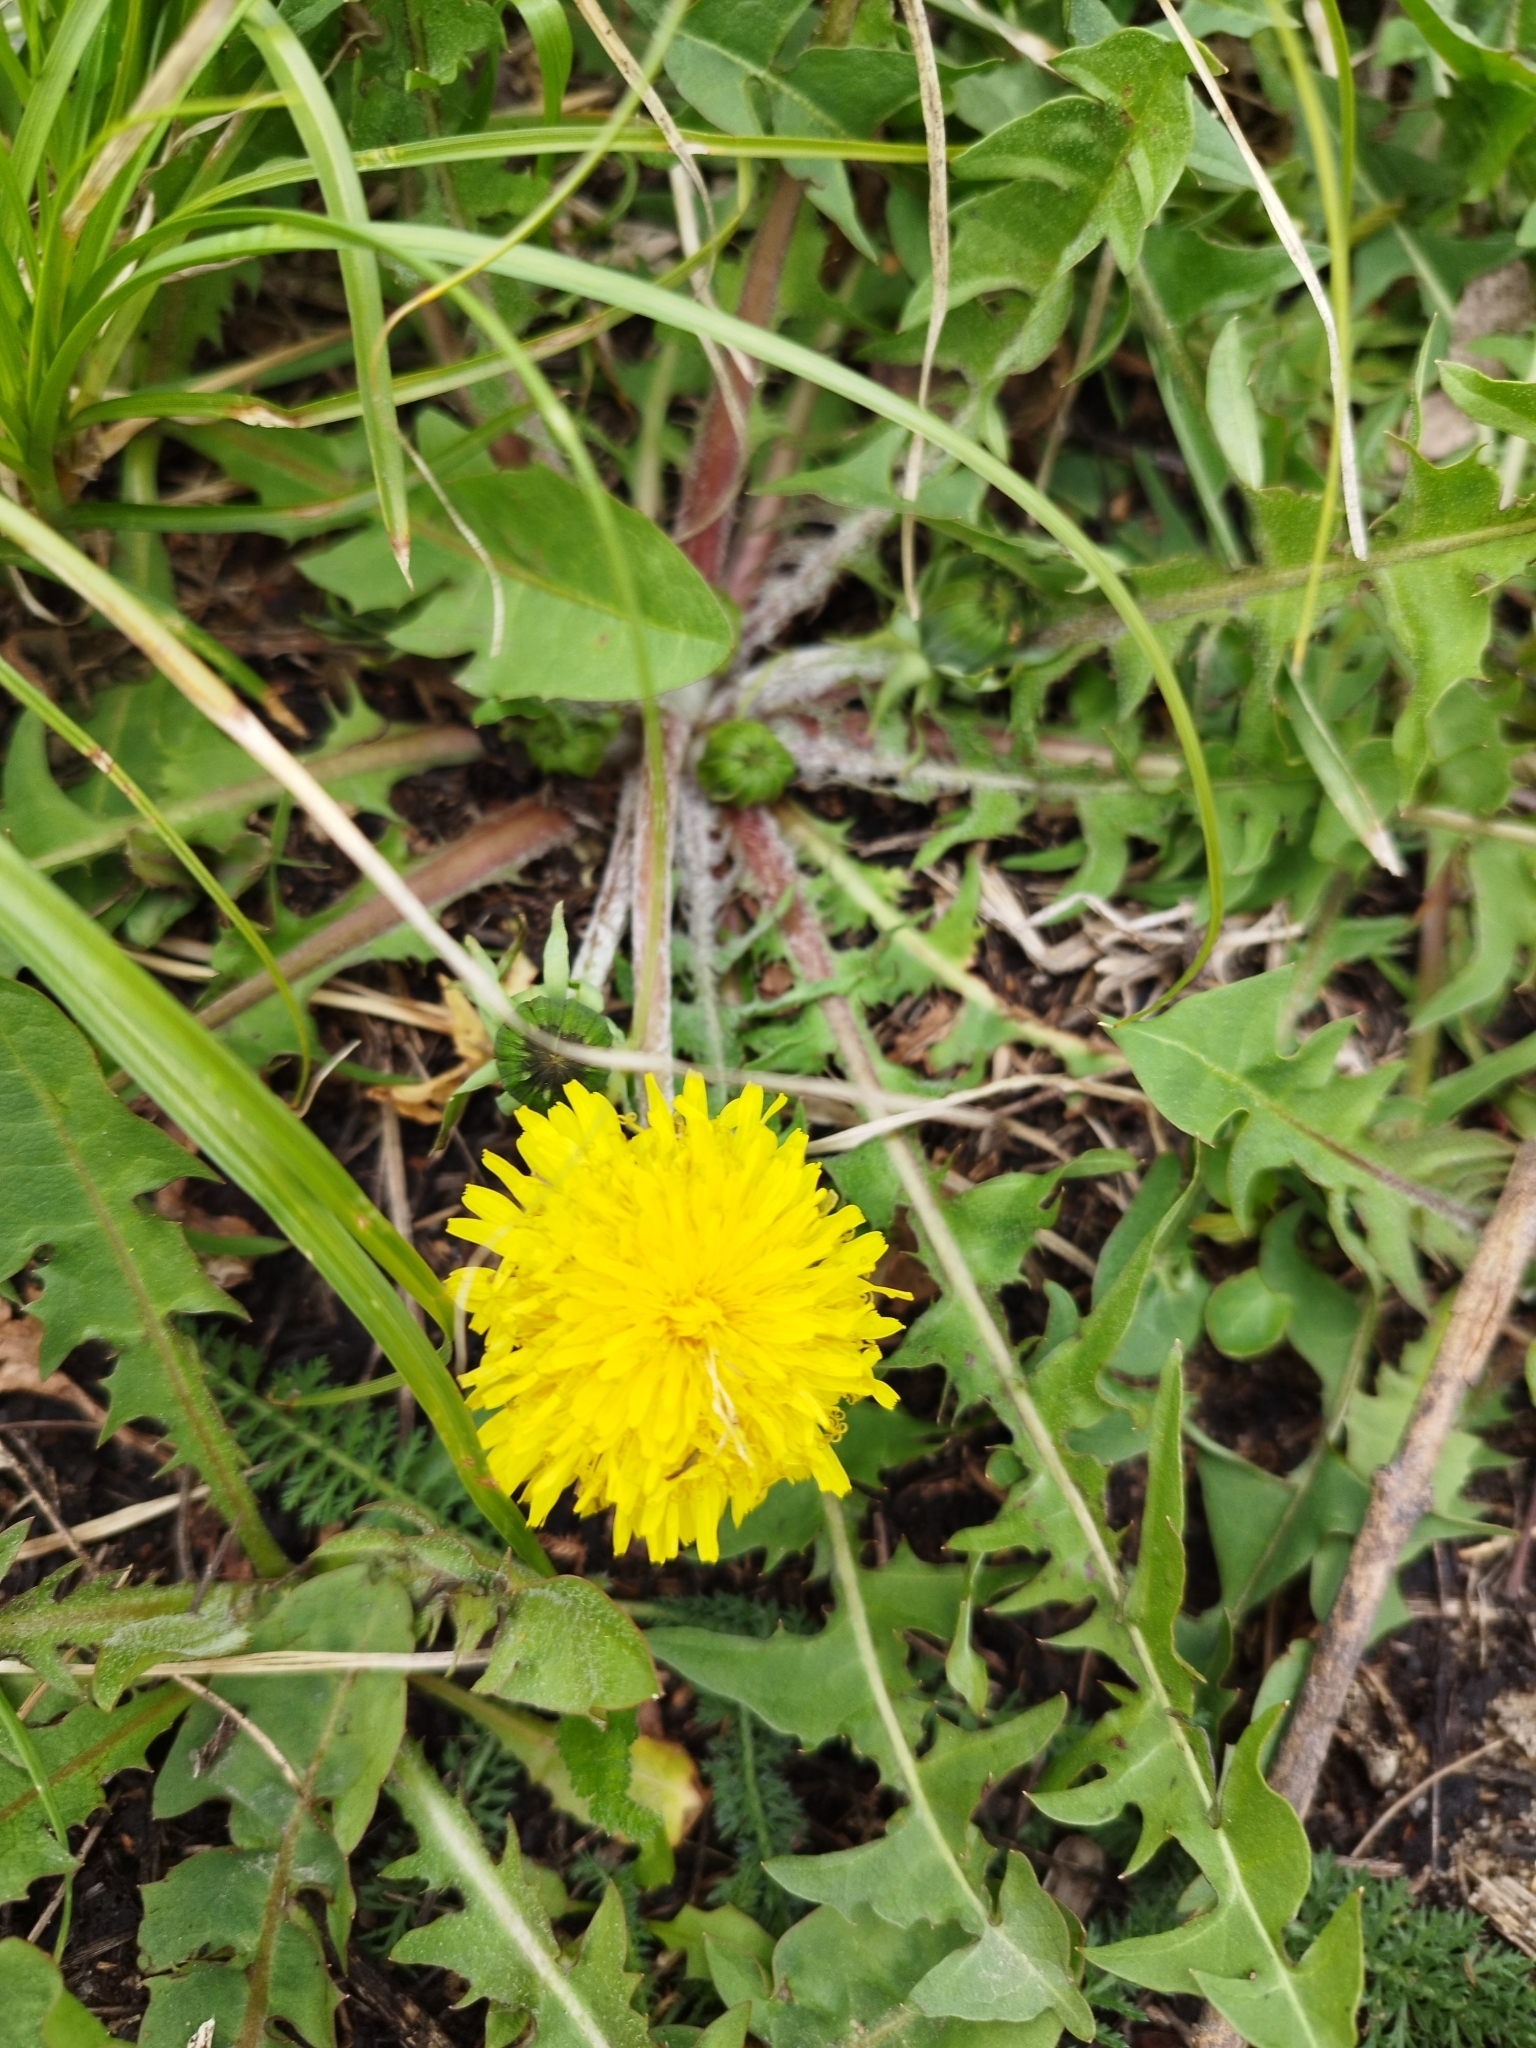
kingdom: Plantae
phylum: Tracheophyta
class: Magnoliopsida
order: Asterales
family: Asteraceae
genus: Taraxacum
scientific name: Taraxacum officinale
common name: Common dandelion
